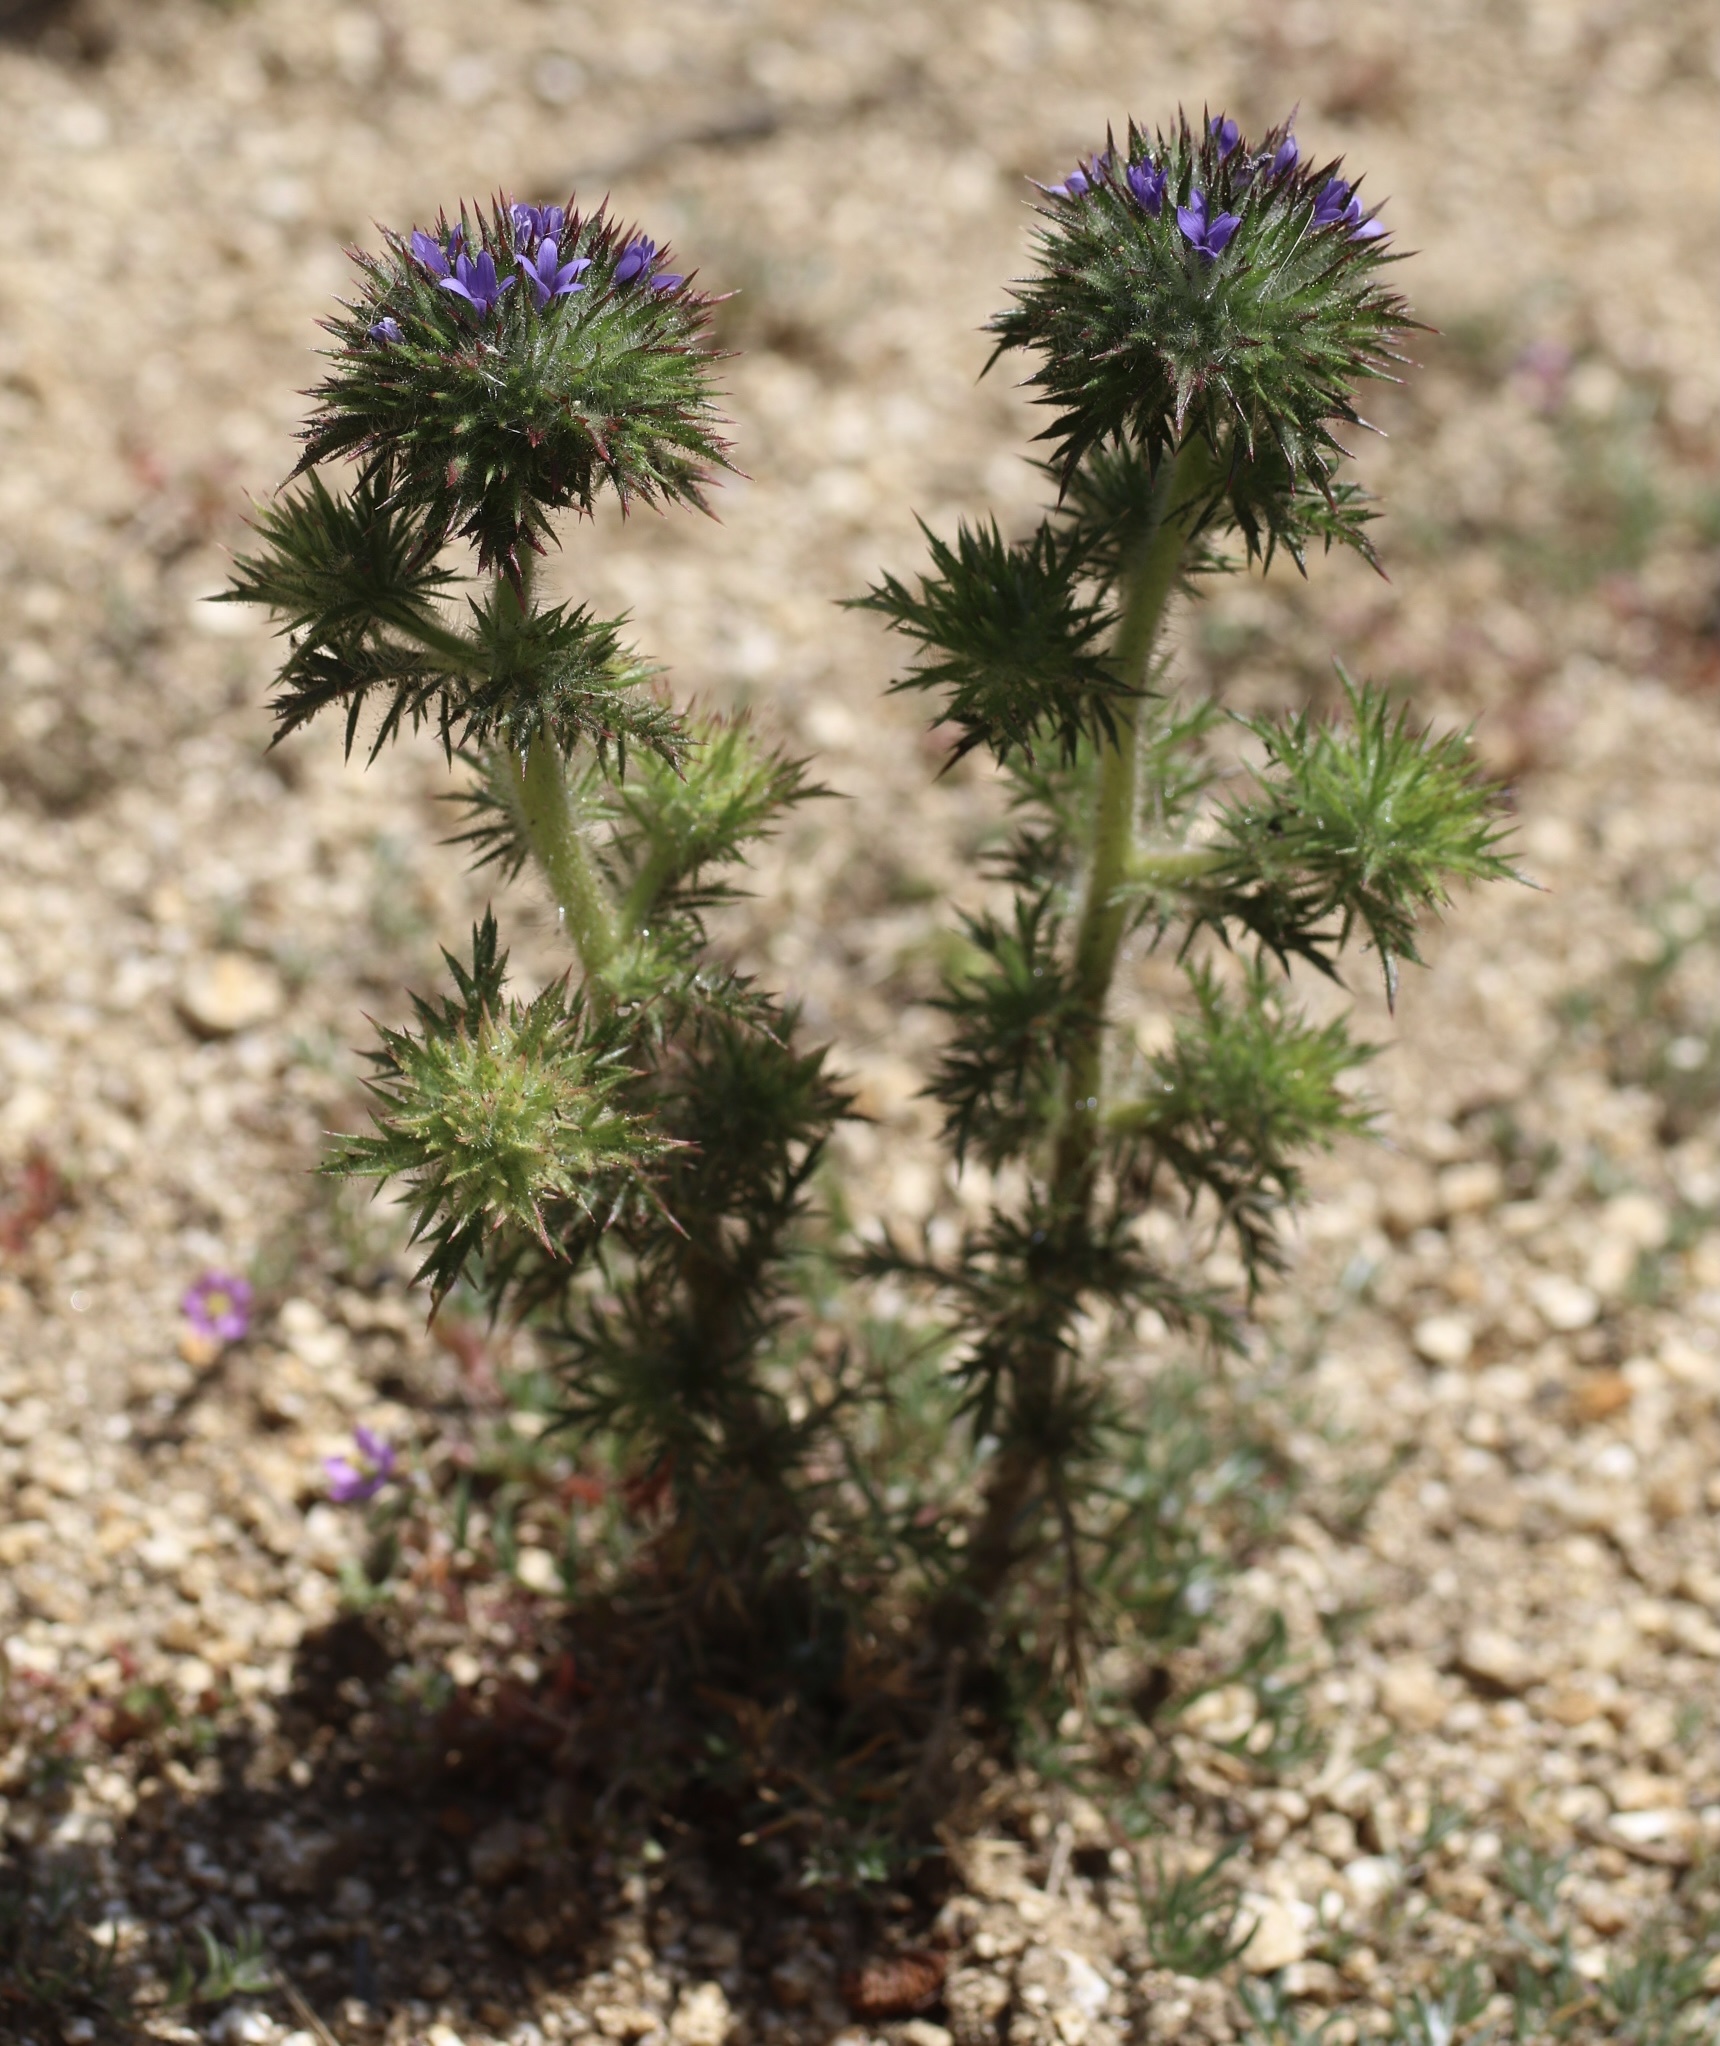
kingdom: Plantae
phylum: Tracheophyta
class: Magnoliopsida
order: Ericales
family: Polemoniaceae
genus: Navarretia
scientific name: Navarretia squarrosa
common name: Skunkweed
